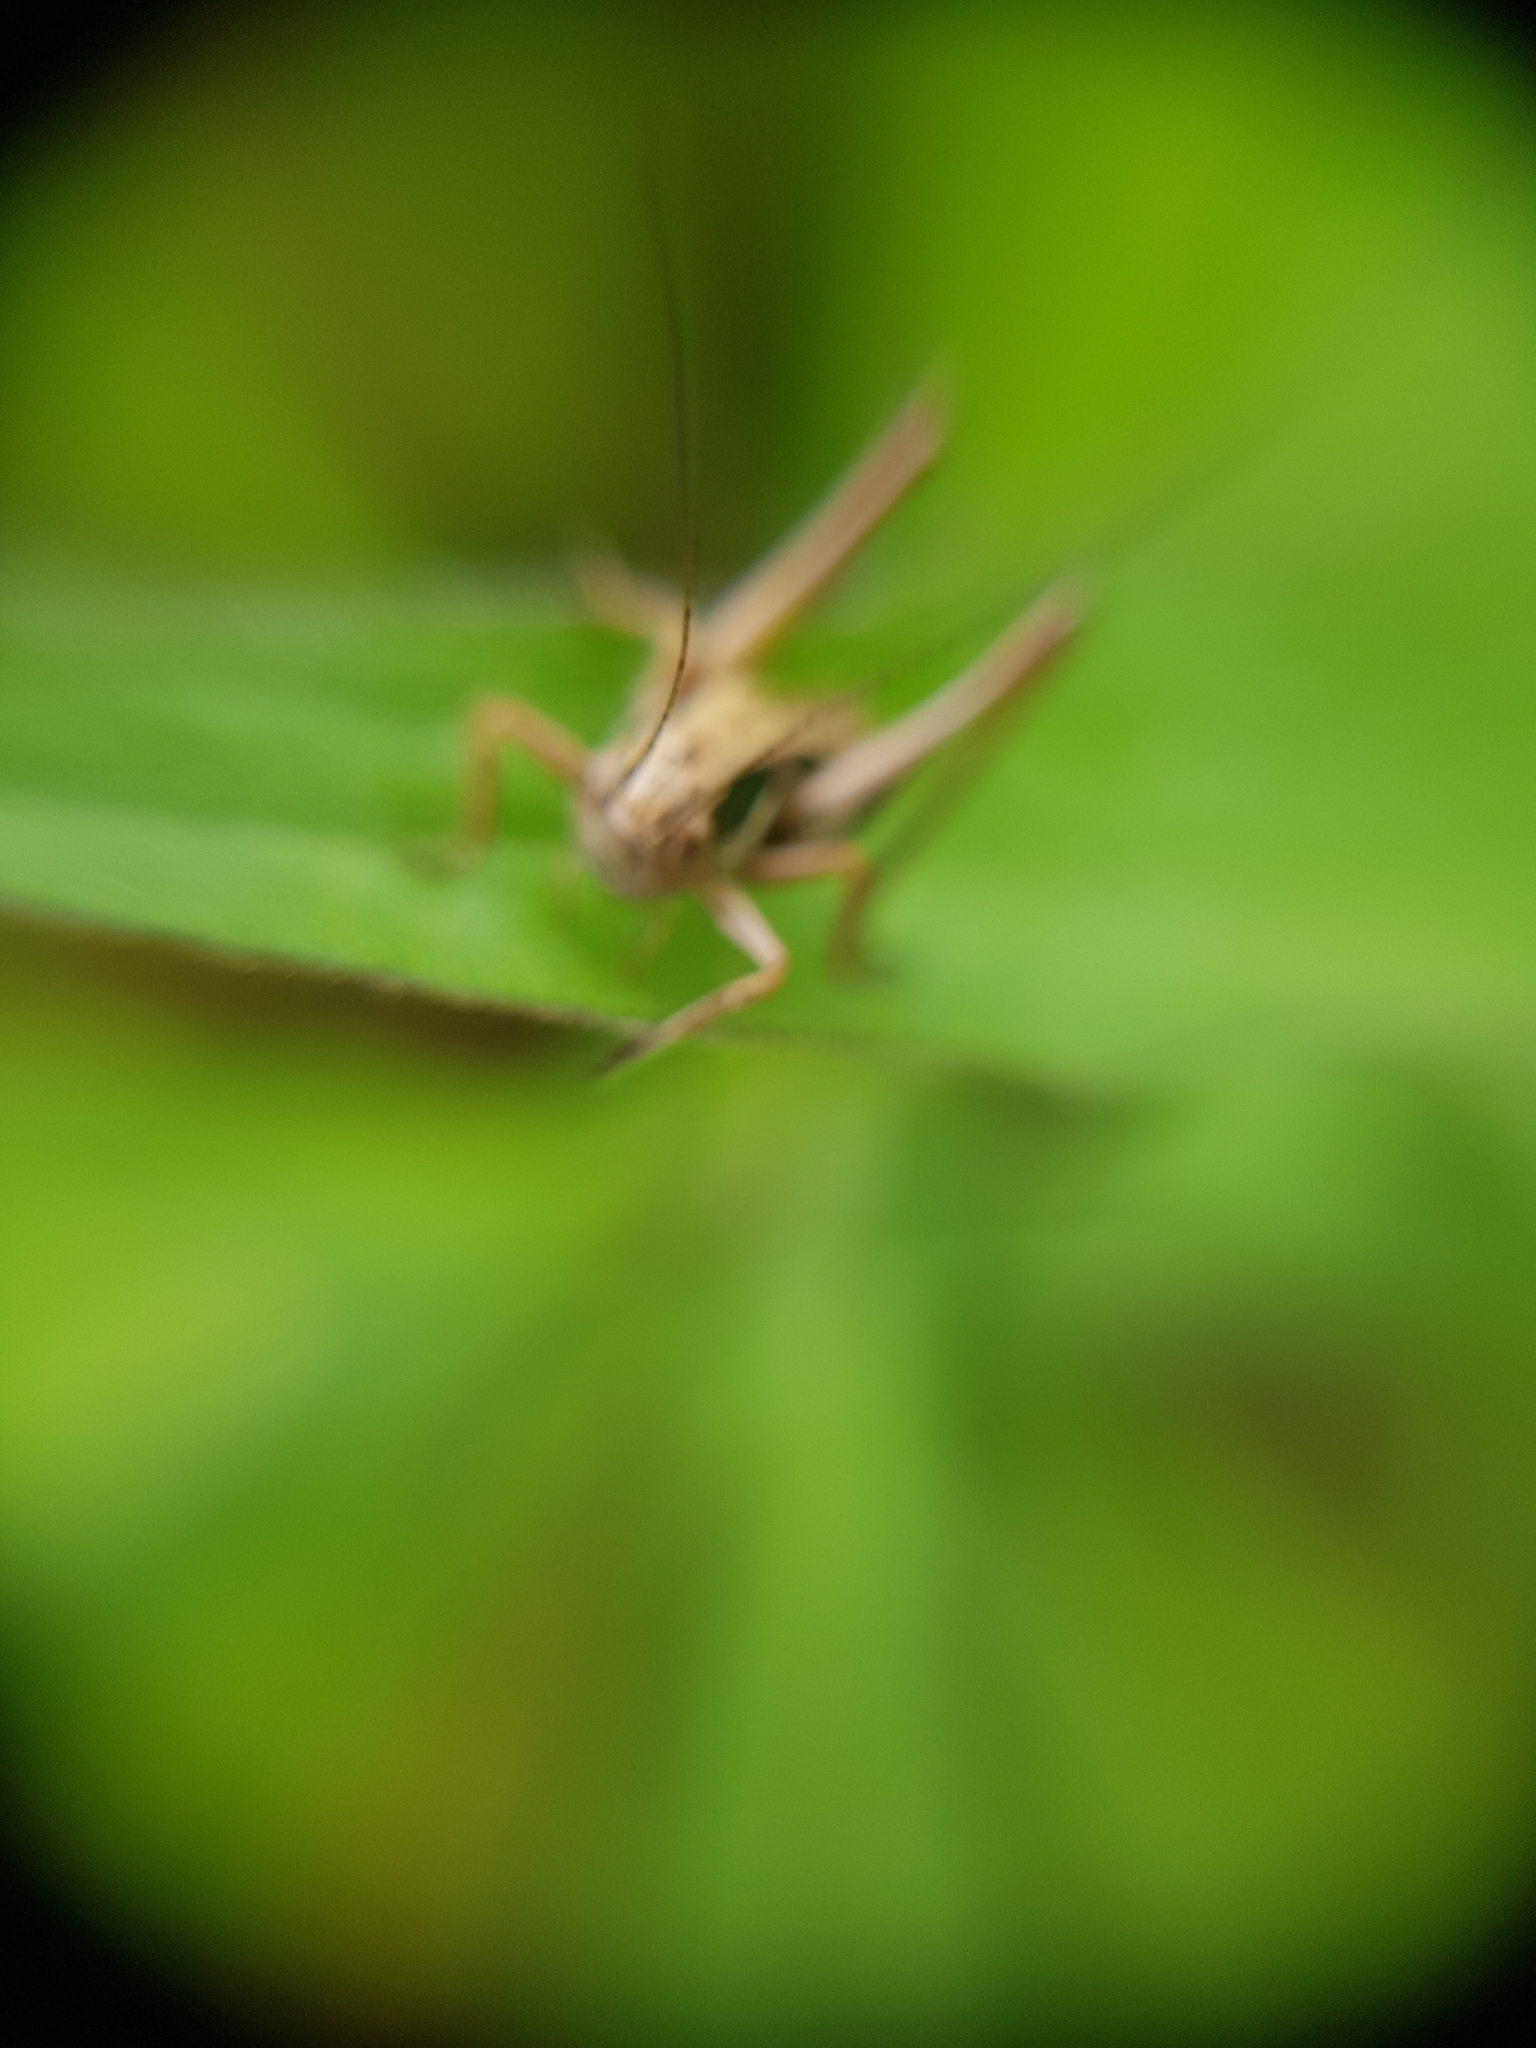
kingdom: Animalia
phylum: Arthropoda
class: Insecta
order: Orthoptera
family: Tettigoniidae
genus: Roeseliana
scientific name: Roeseliana roeselii
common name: Roesel's bush cricket
